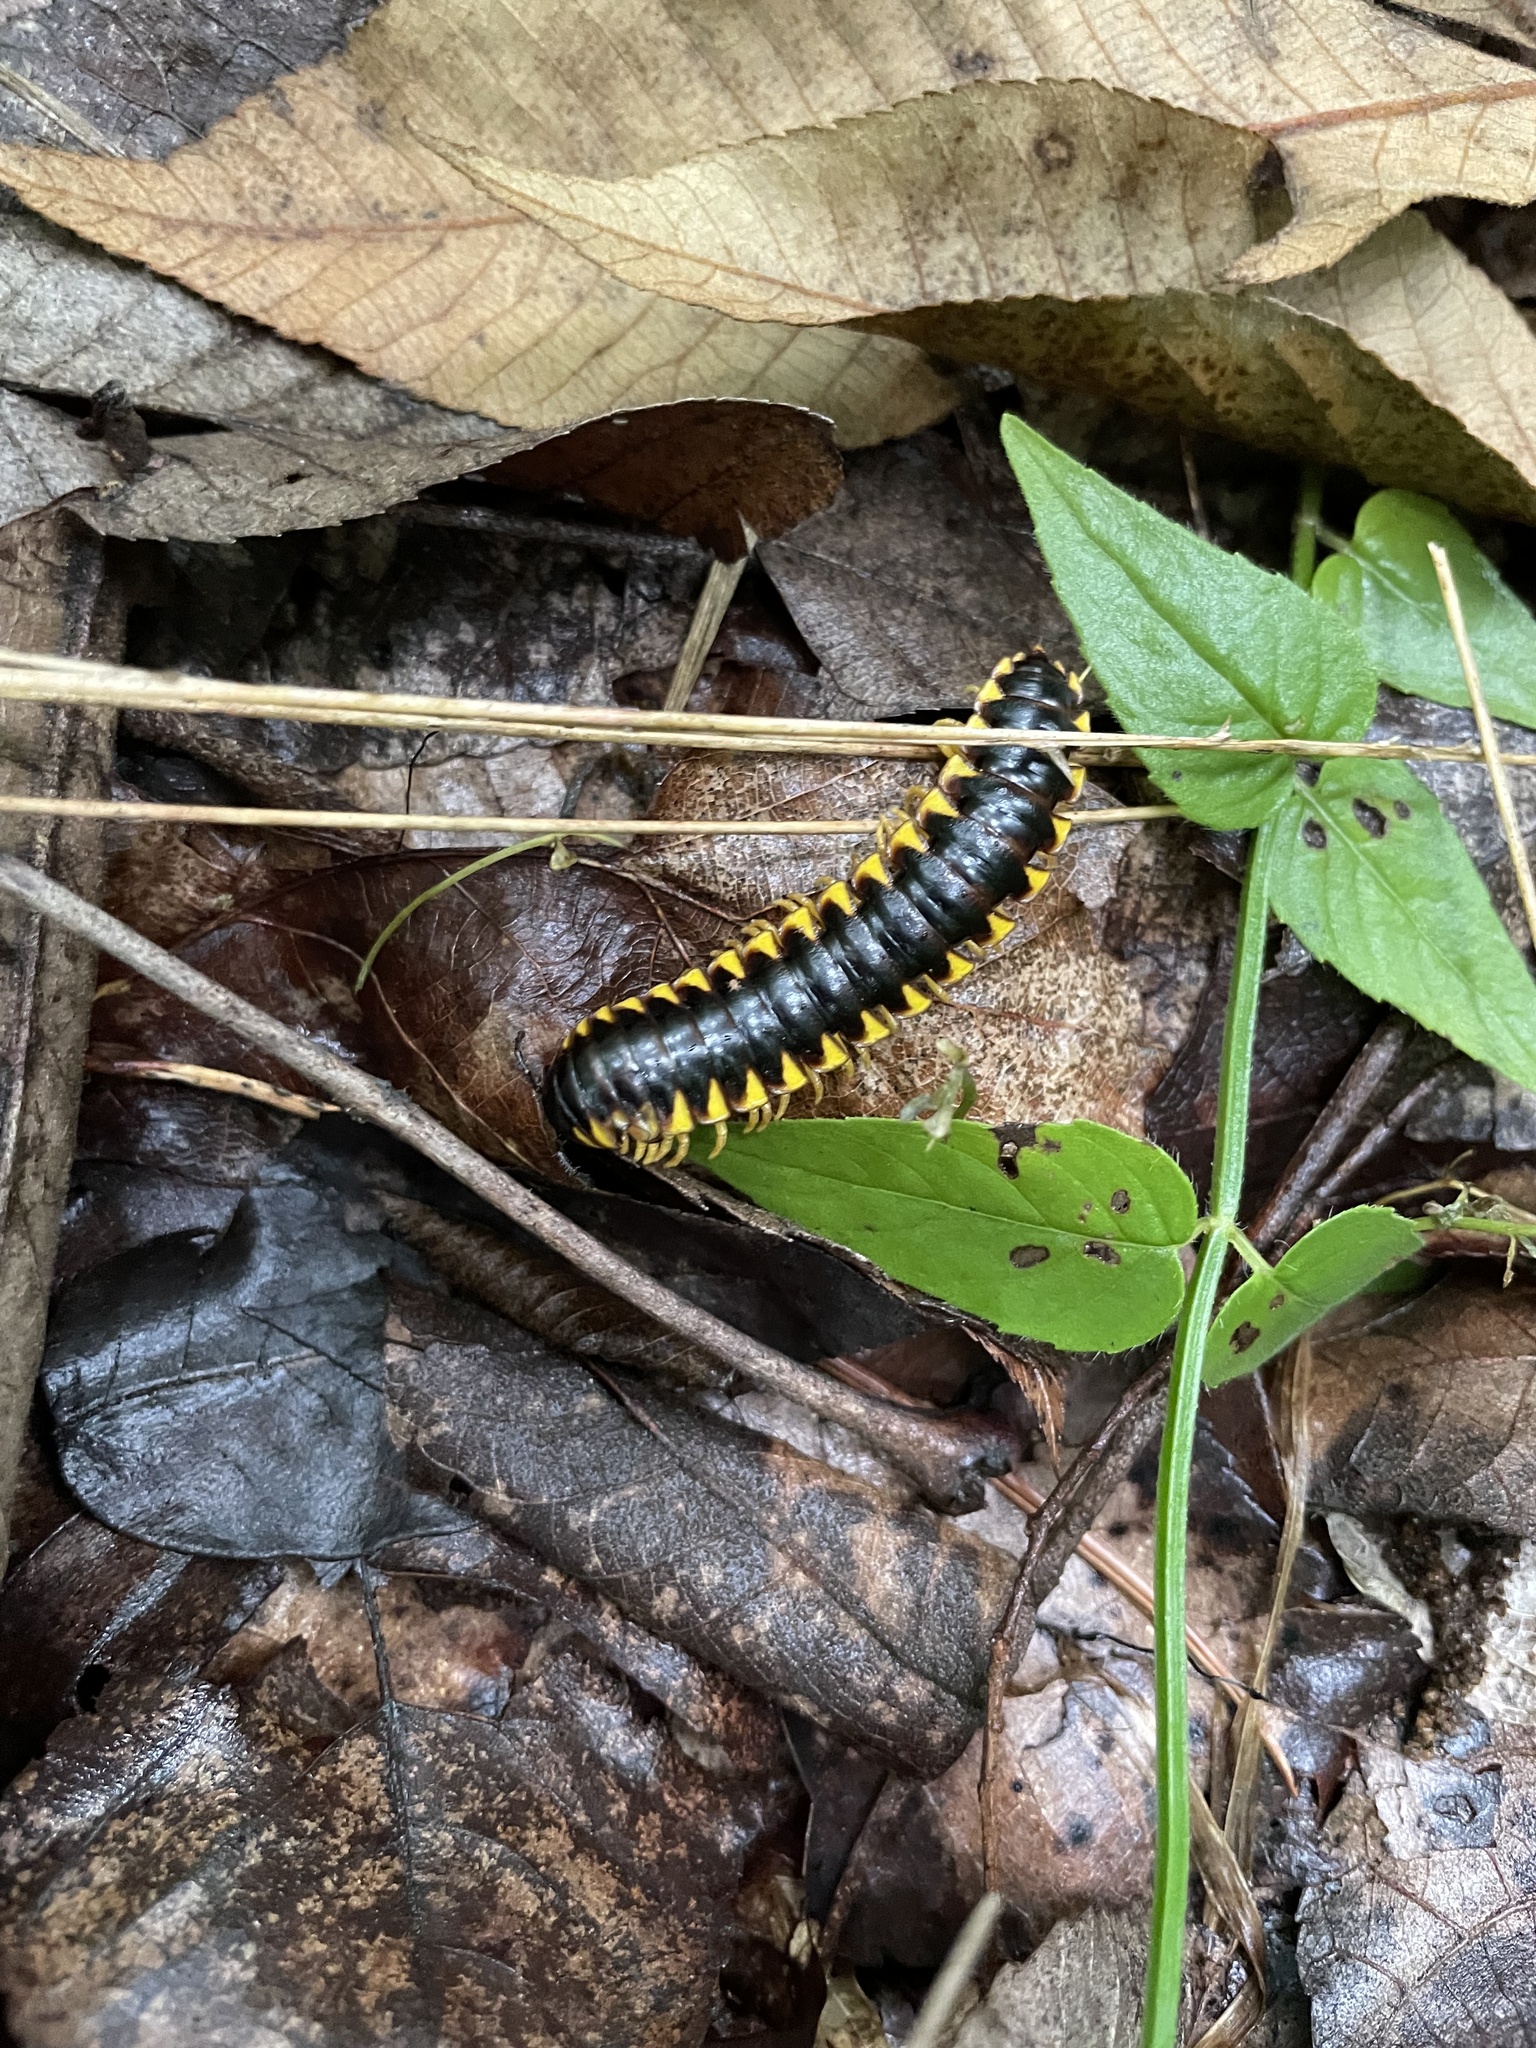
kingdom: Animalia
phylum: Arthropoda
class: Diplopoda
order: Polydesmida
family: Xystodesmidae
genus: Apheloria
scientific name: Apheloria virginiensis
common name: Black-and-gold flat millipede
